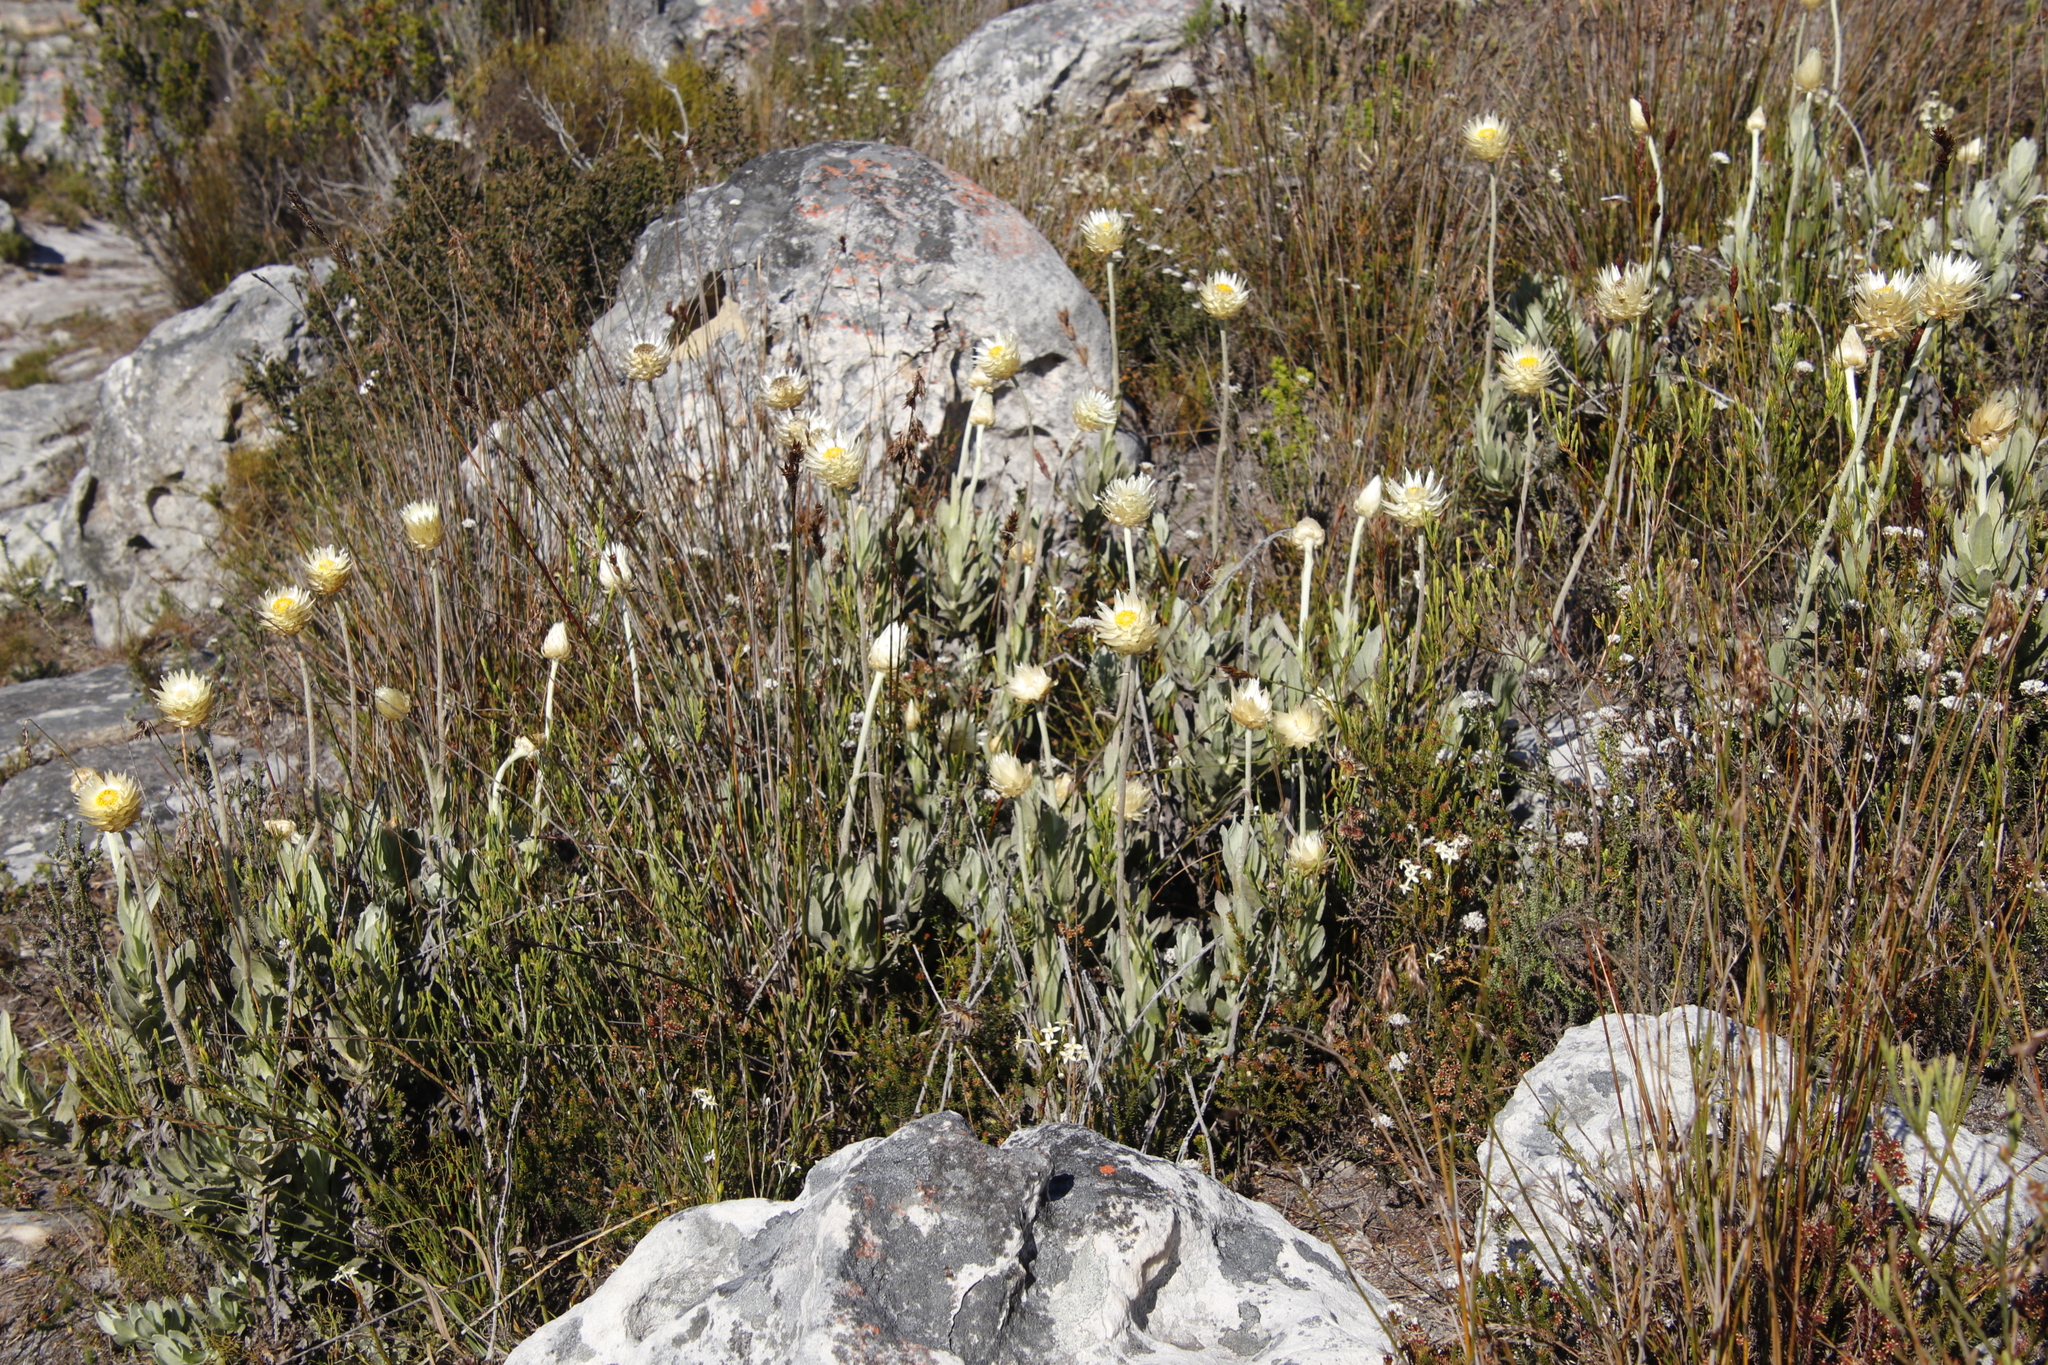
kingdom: Plantae
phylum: Tracheophyta
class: Magnoliopsida
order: Asterales
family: Asteraceae
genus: Syncarpha
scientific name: Syncarpha speciosissima
